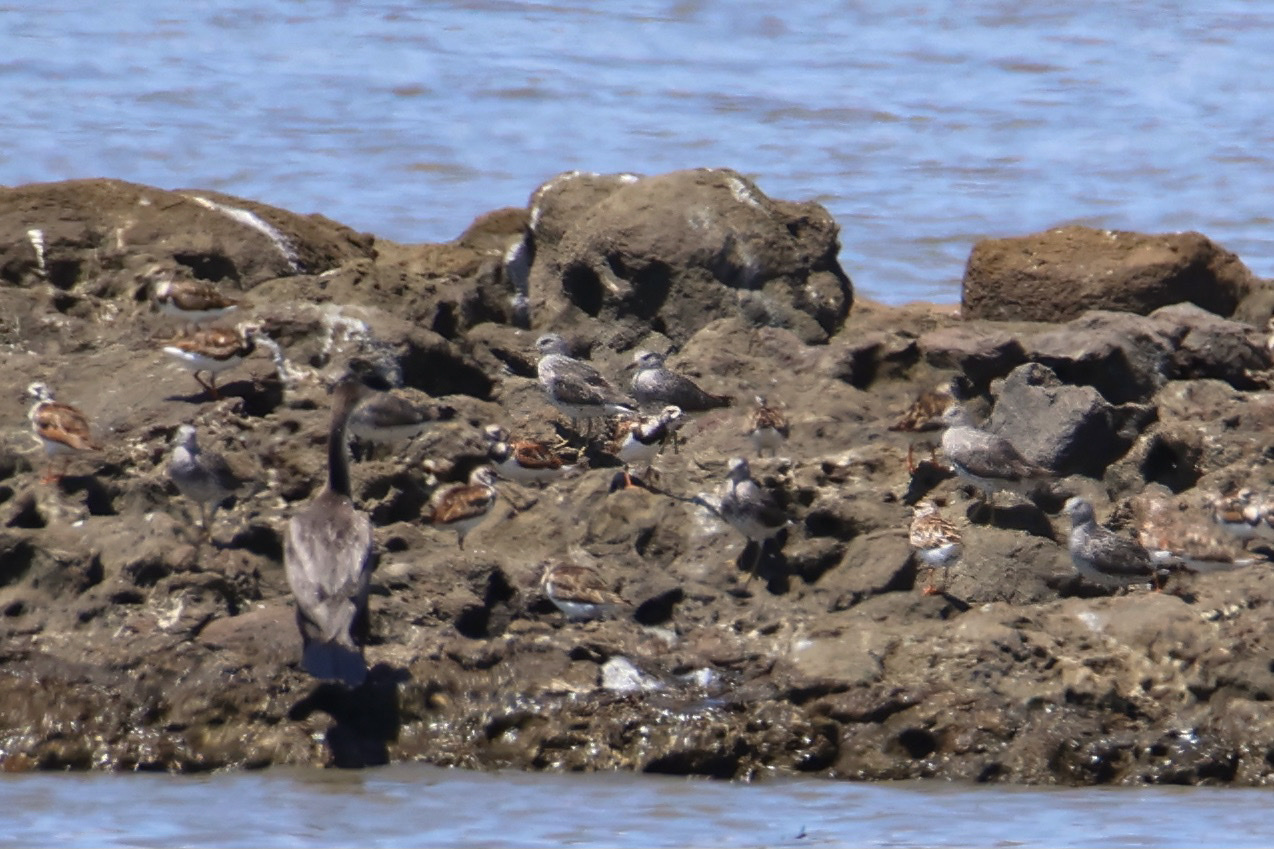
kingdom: Animalia
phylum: Chordata
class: Aves
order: Charadriiformes
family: Scolopacidae
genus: Calidris
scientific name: Calidris virgata
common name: Surfbird
